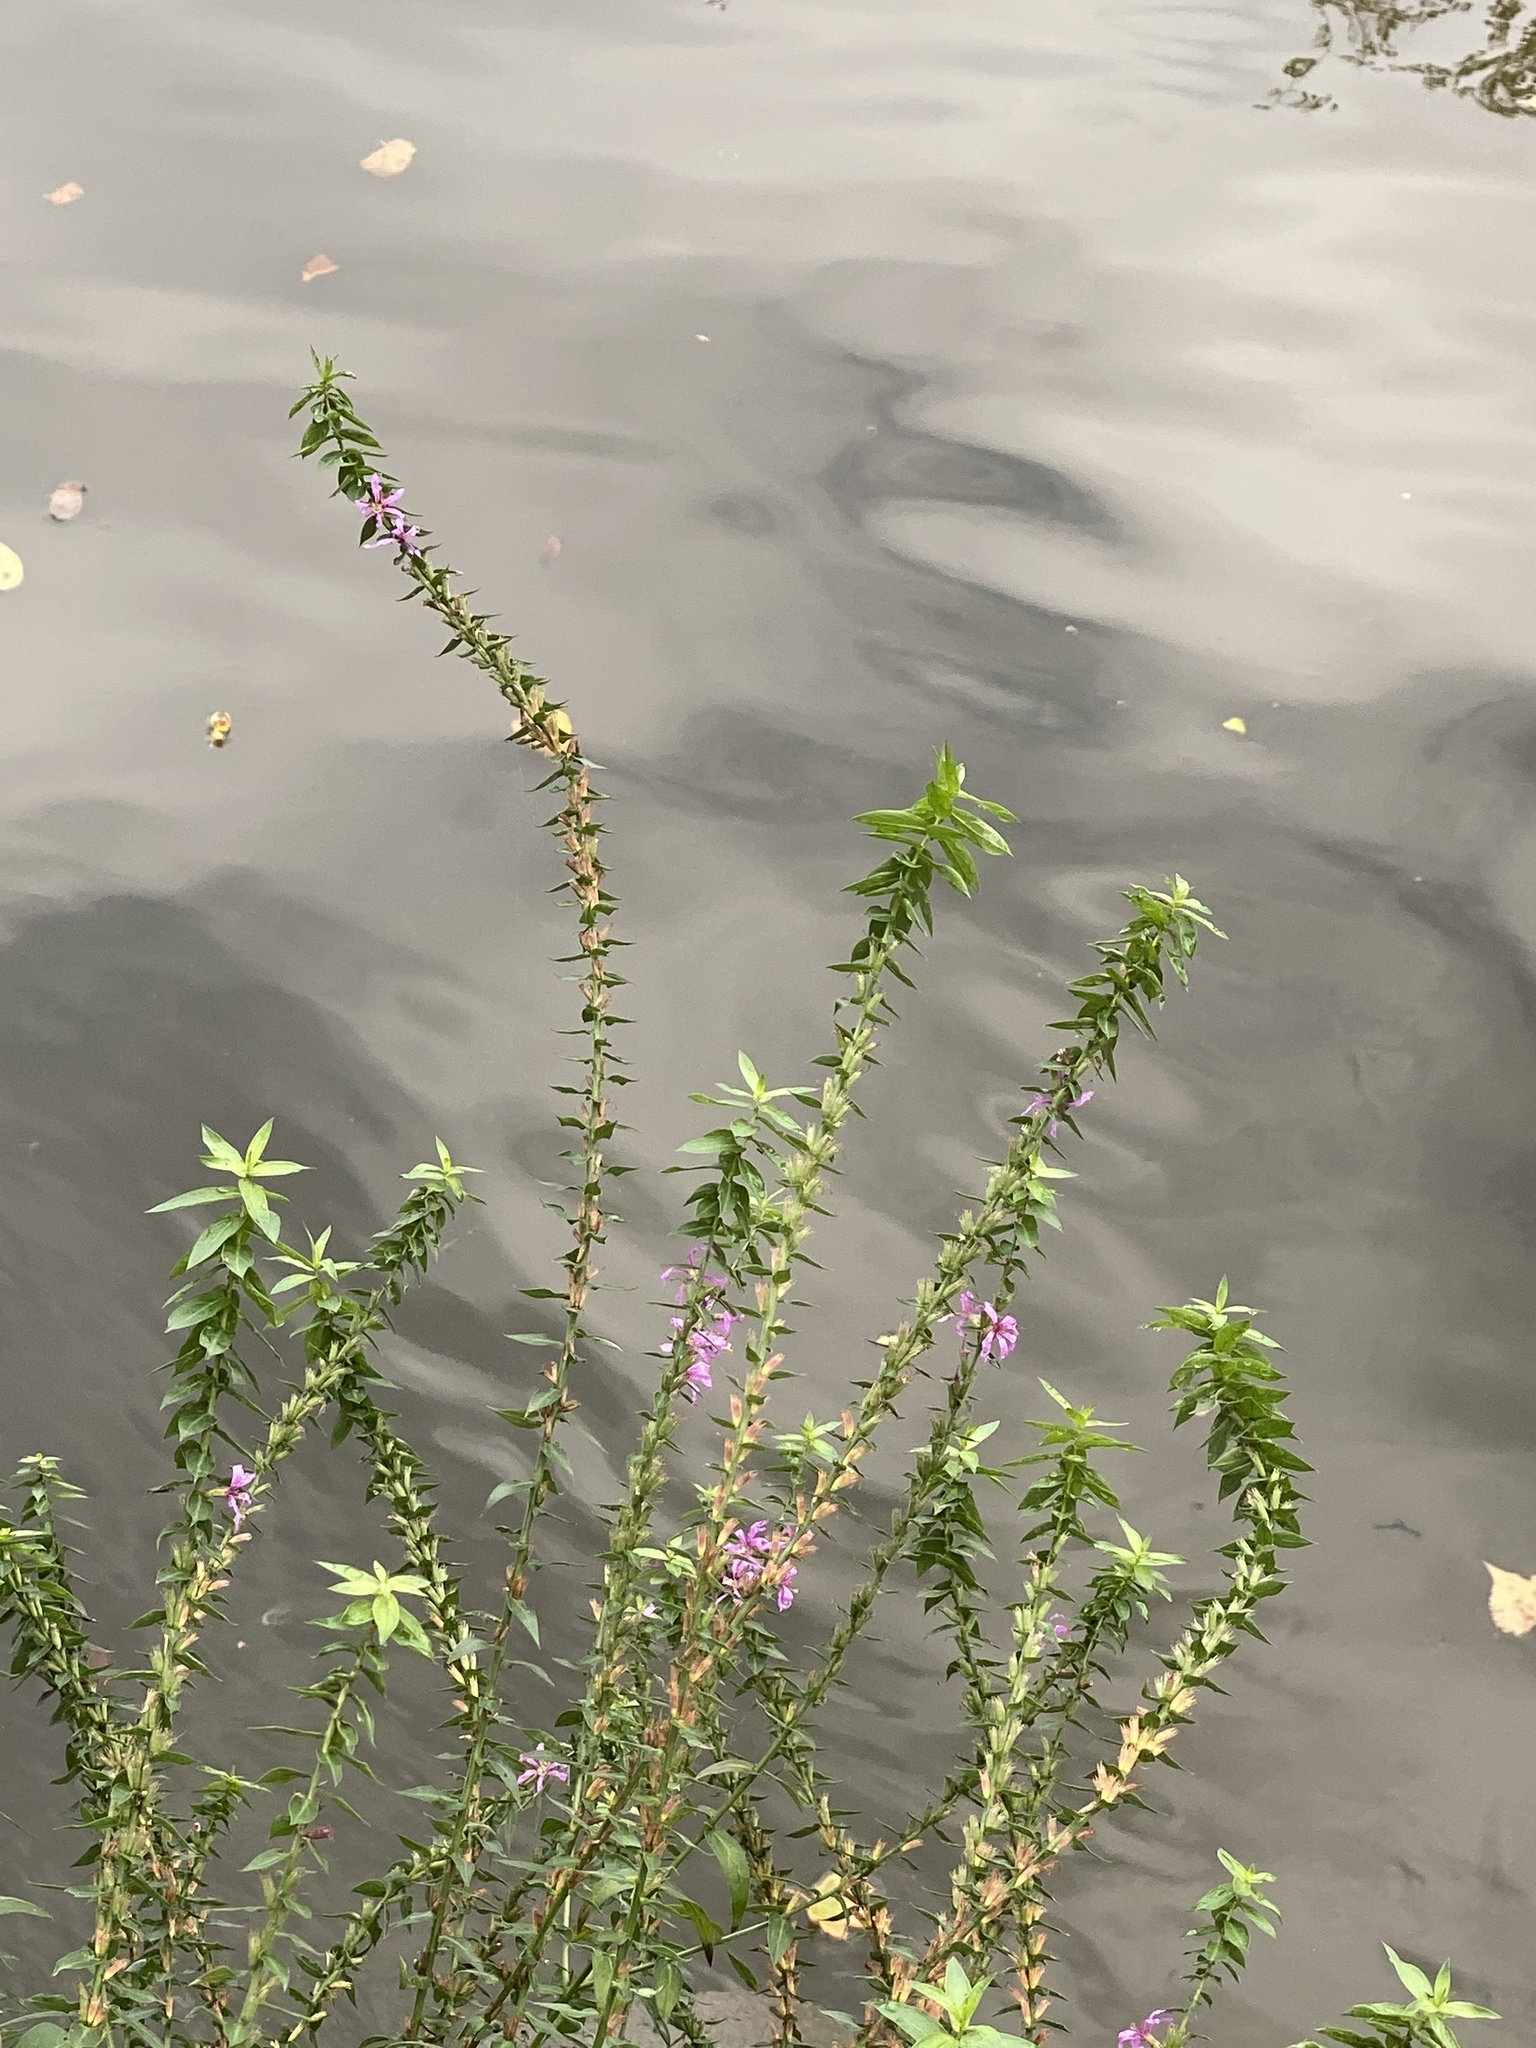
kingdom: Plantae
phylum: Tracheophyta
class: Magnoliopsida
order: Myrtales
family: Lythraceae
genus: Lythrum
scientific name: Lythrum salicaria
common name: Purple loosestrife
